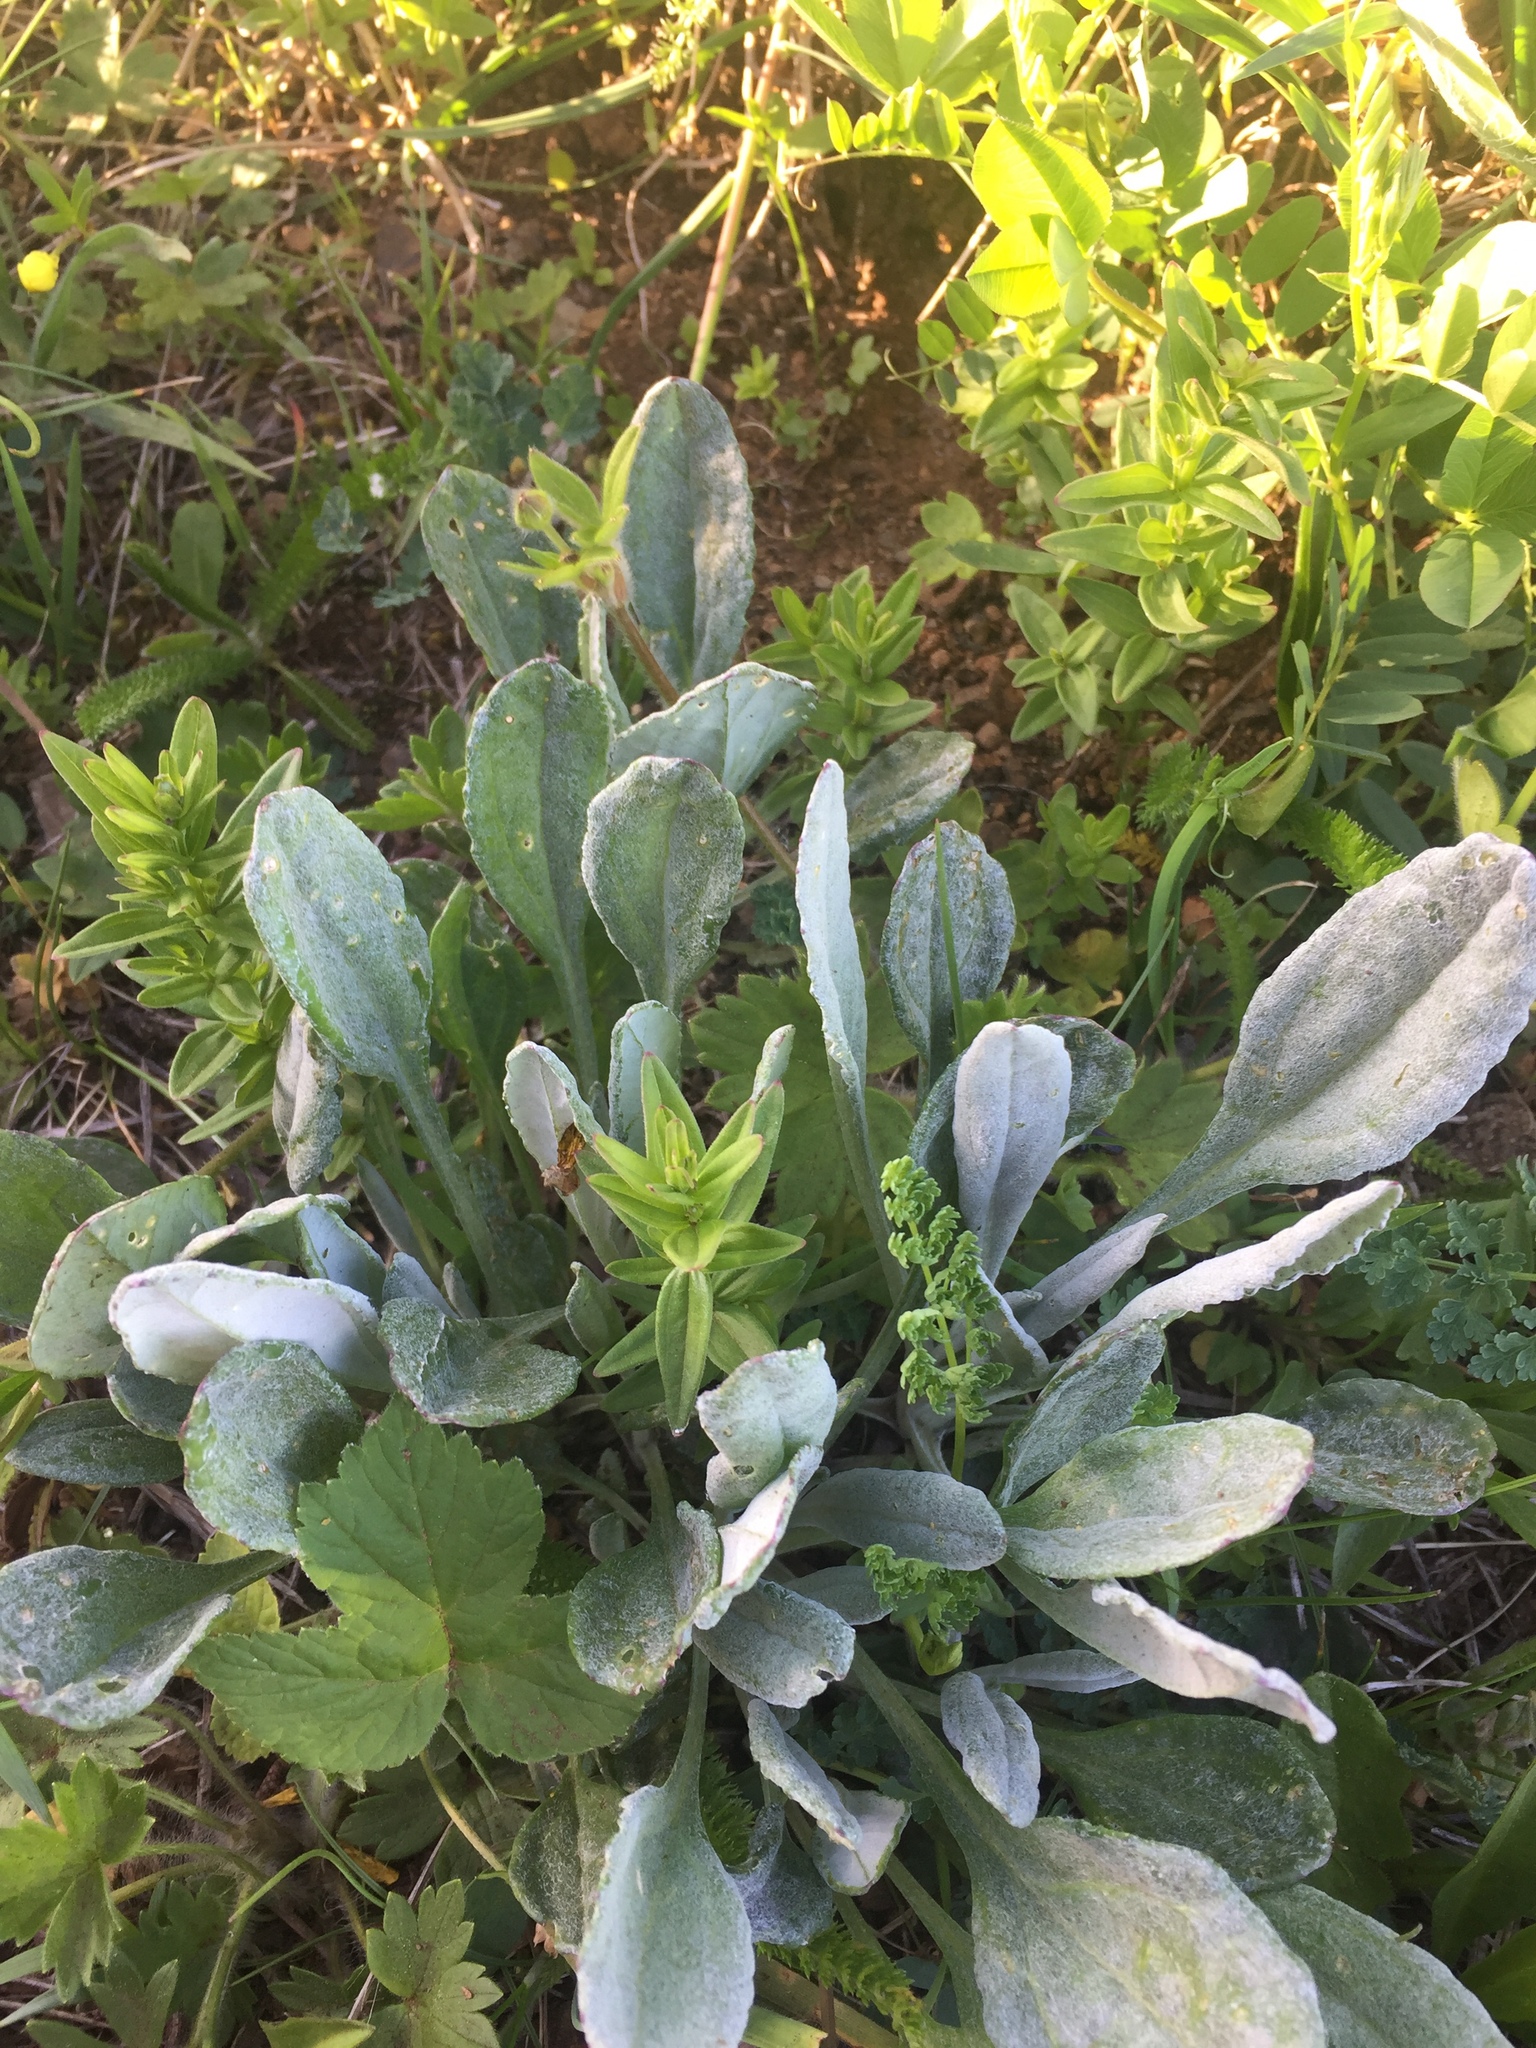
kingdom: Plantae
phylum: Tracheophyta
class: Magnoliopsida
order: Asterales
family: Asteraceae
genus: Packera
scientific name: Packera cana
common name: Woolly groundsel
